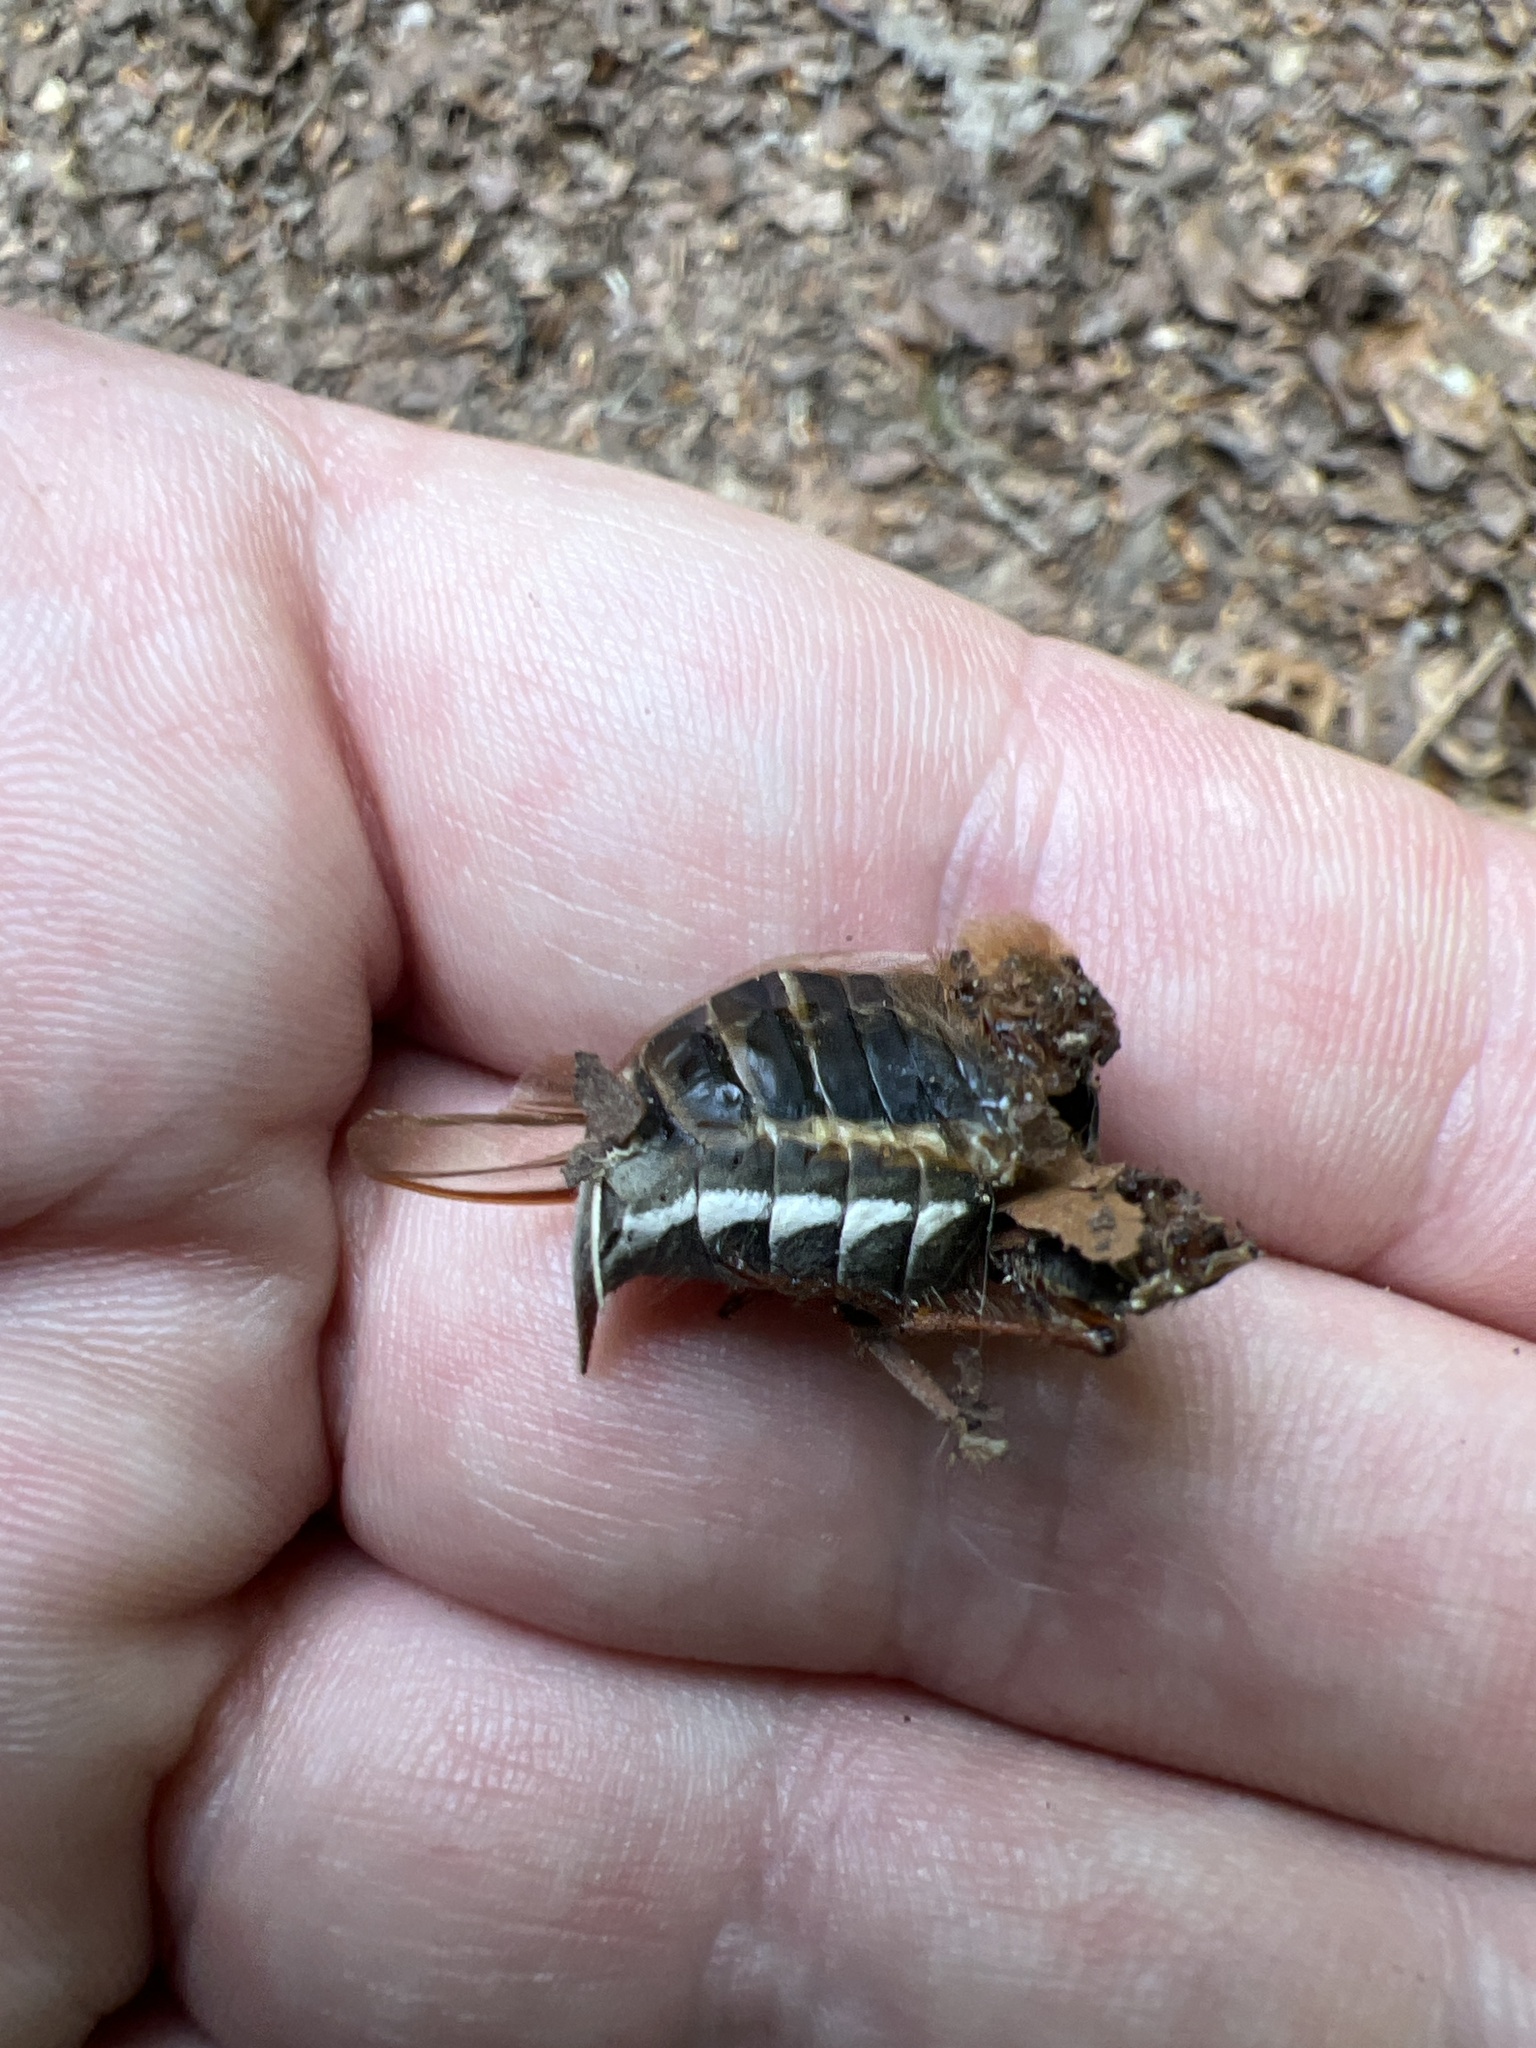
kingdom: Animalia
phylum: Arthropoda
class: Insecta
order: Coleoptera
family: Scarabaeidae
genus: Melolontha
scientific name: Melolontha melolontha
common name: Cockchafer maybeetle
